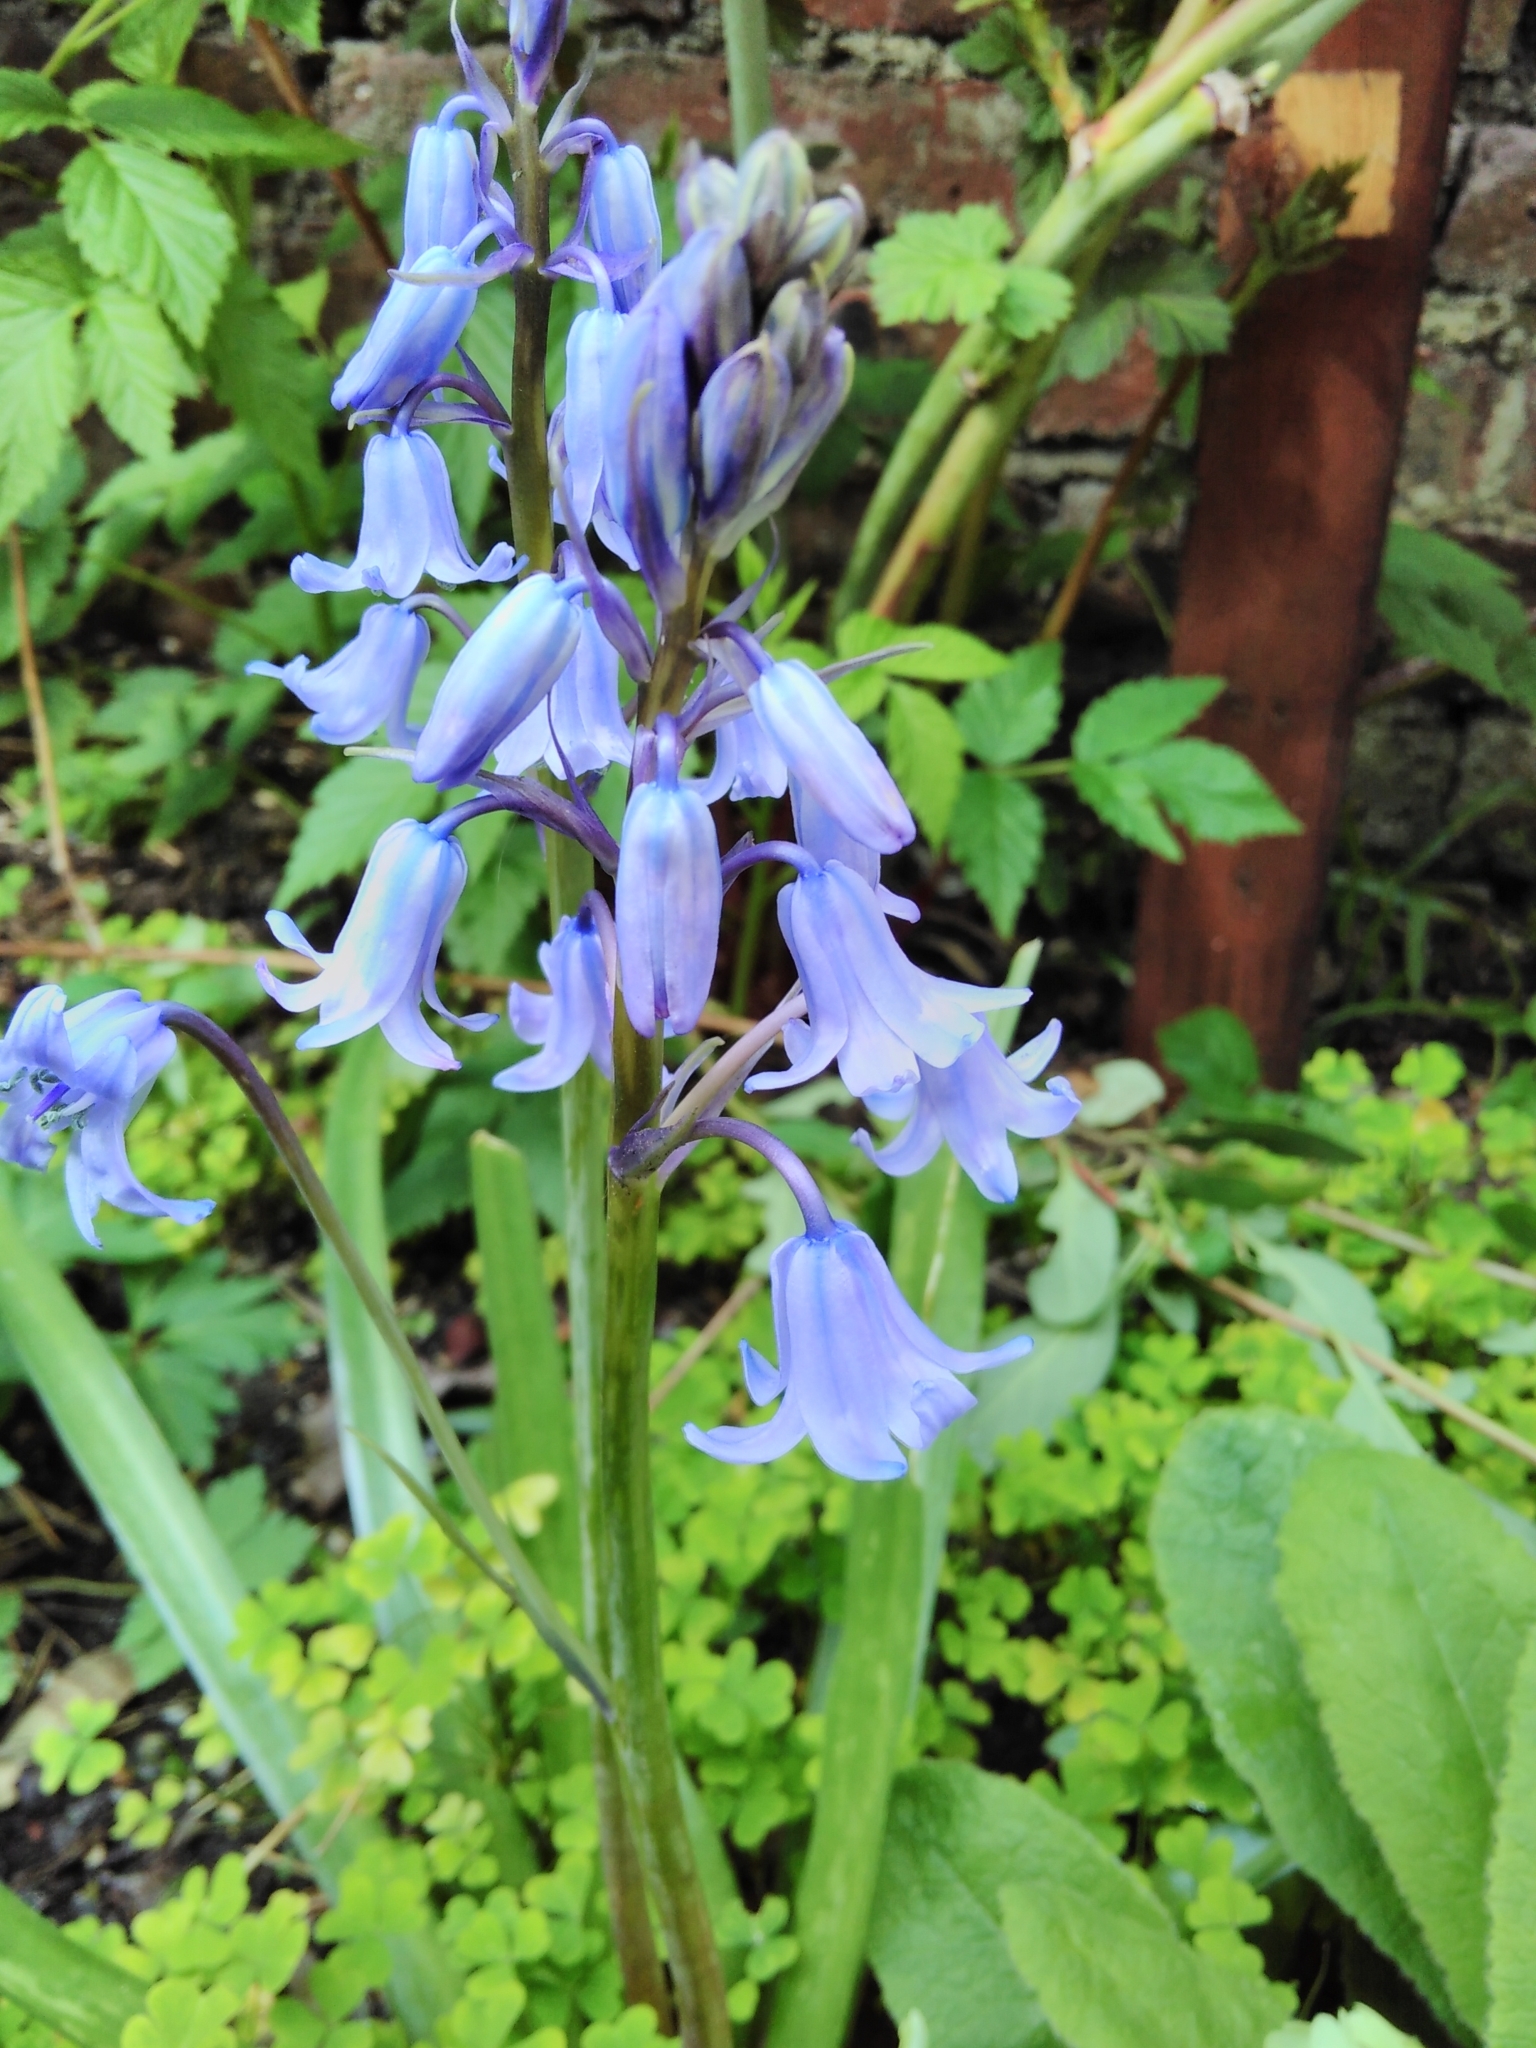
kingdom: Plantae
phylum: Tracheophyta
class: Liliopsida
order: Asparagales
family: Asparagaceae
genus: Hyacinthoides
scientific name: Hyacinthoides hispanica
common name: Spanish bluebell
